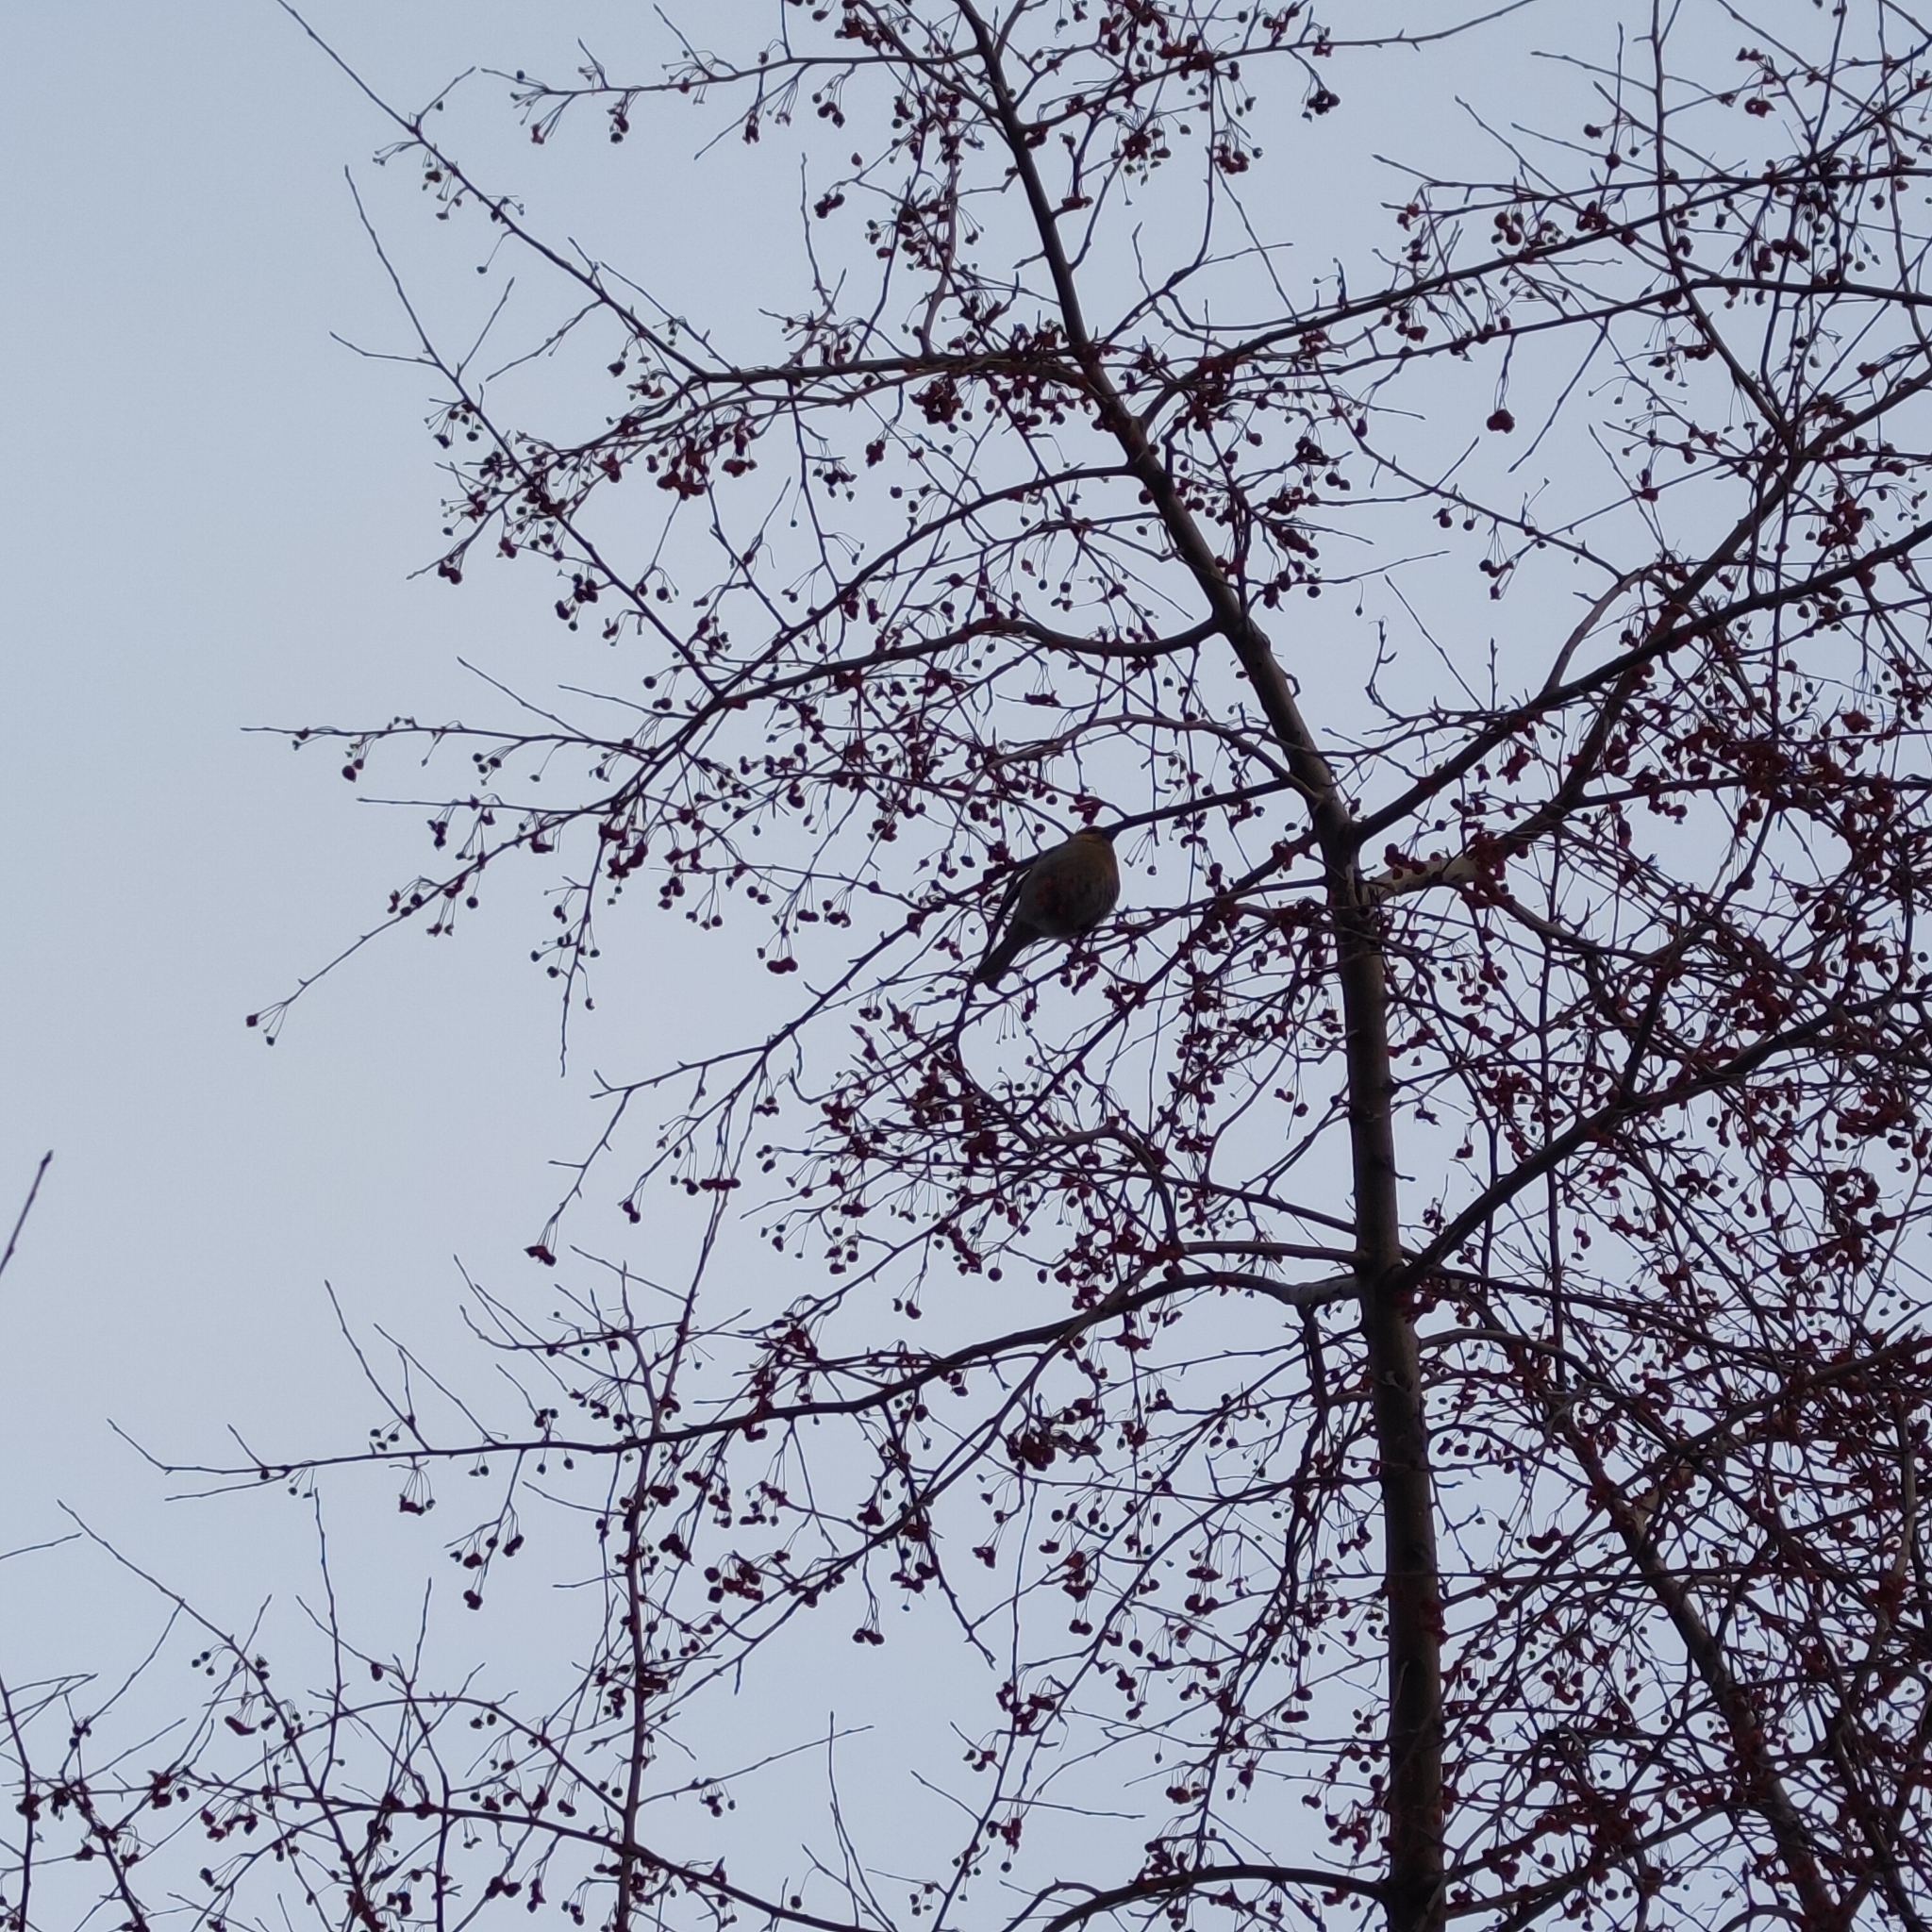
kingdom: Animalia
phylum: Chordata
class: Aves
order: Passeriformes
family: Fringillidae
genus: Pinicola
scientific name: Pinicola enucleator
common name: Pine grosbeak
